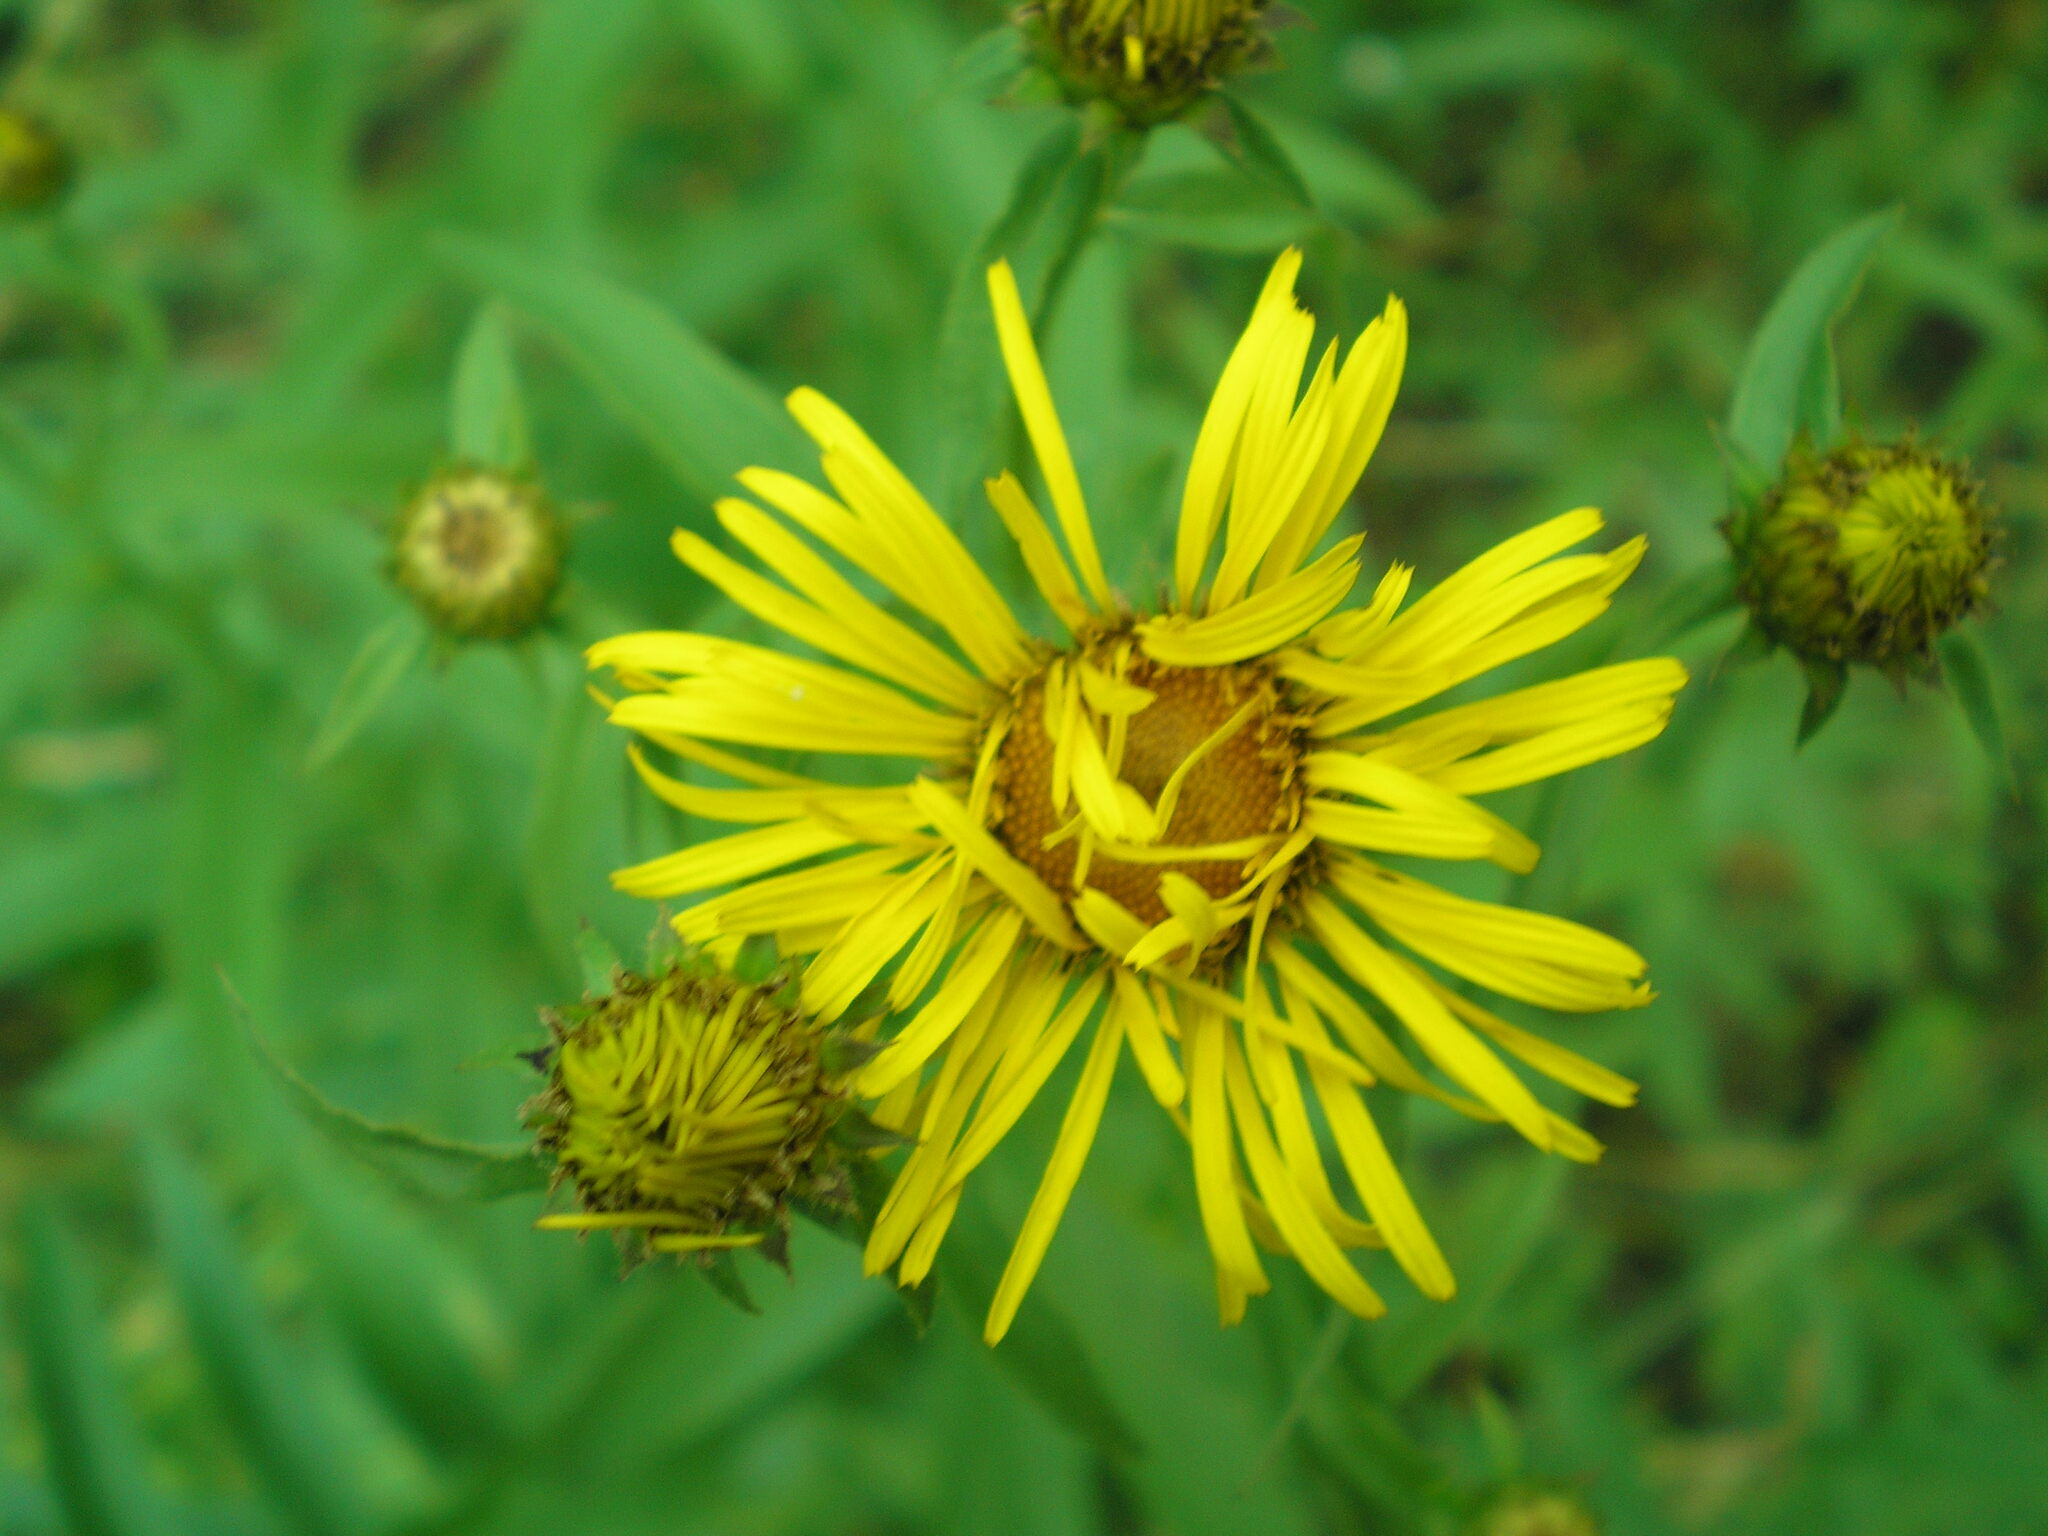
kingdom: Plantae
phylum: Tracheophyta
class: Magnoliopsida
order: Asterales
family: Asteraceae
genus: Pentanema
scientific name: Pentanema salicinum
